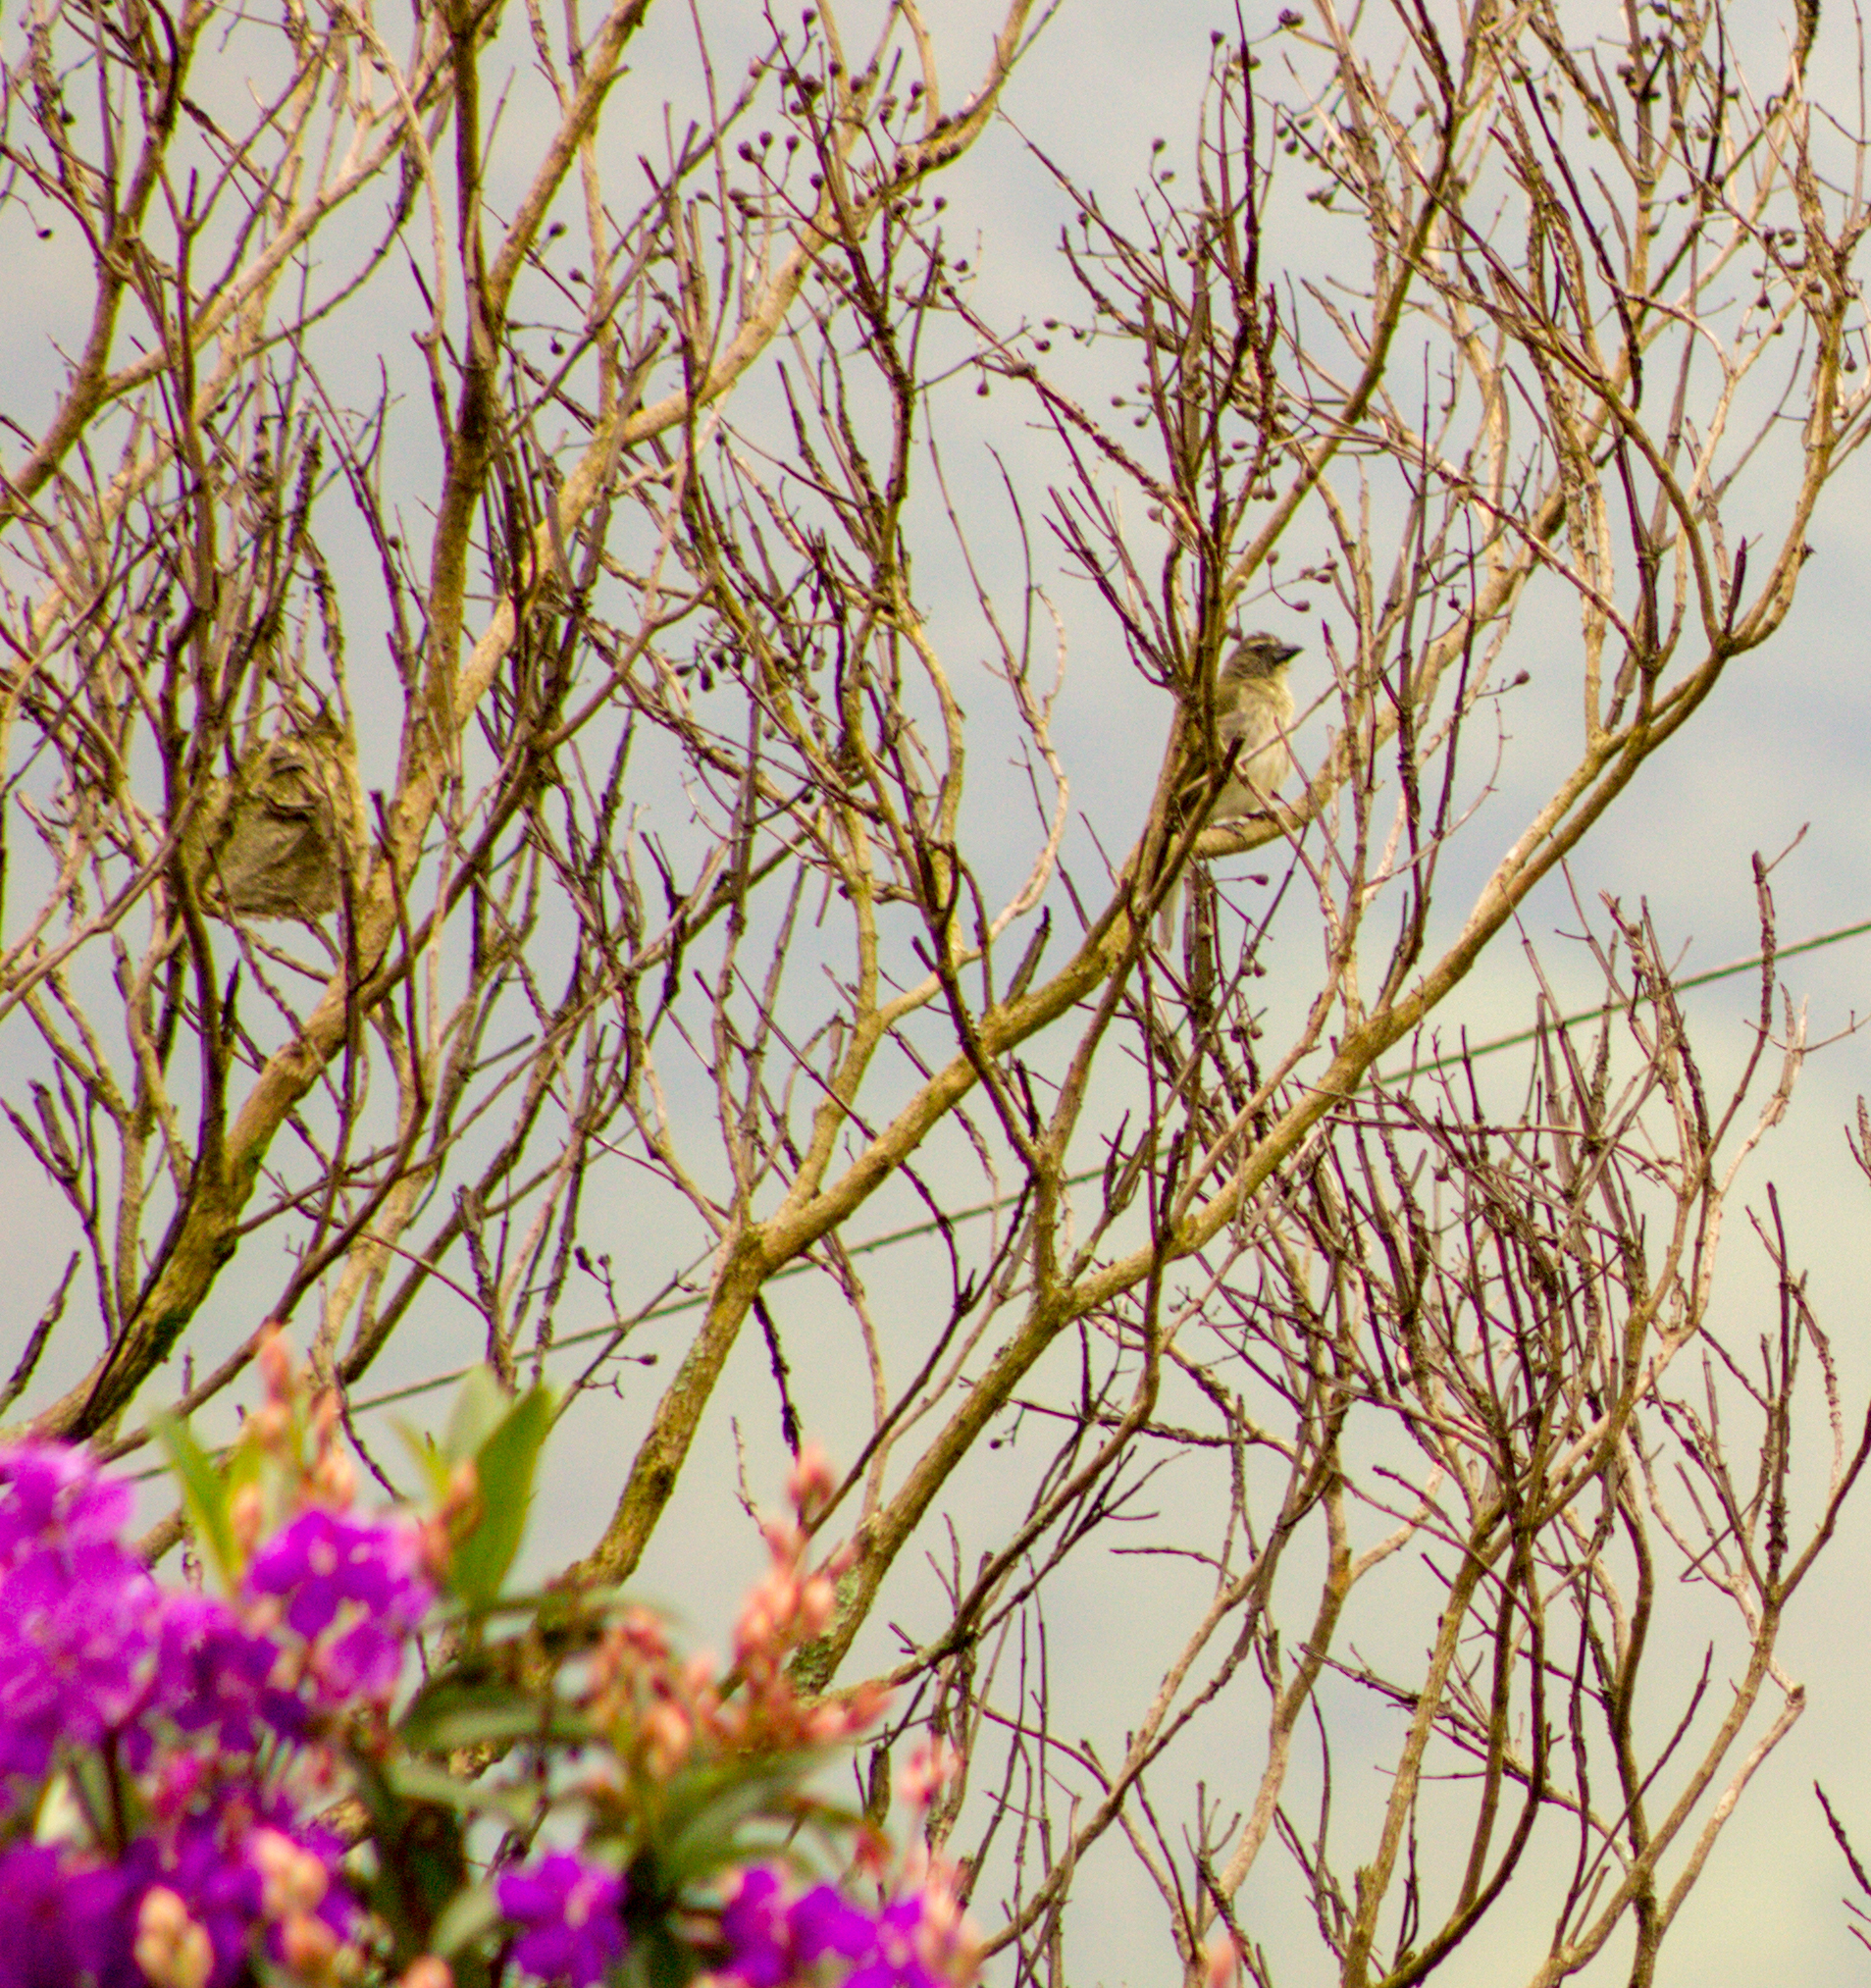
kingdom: Animalia
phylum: Chordata
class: Aves
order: Passeriformes
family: Thraupidae
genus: Saltator
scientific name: Saltator striatipectus
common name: Streaked saltator
